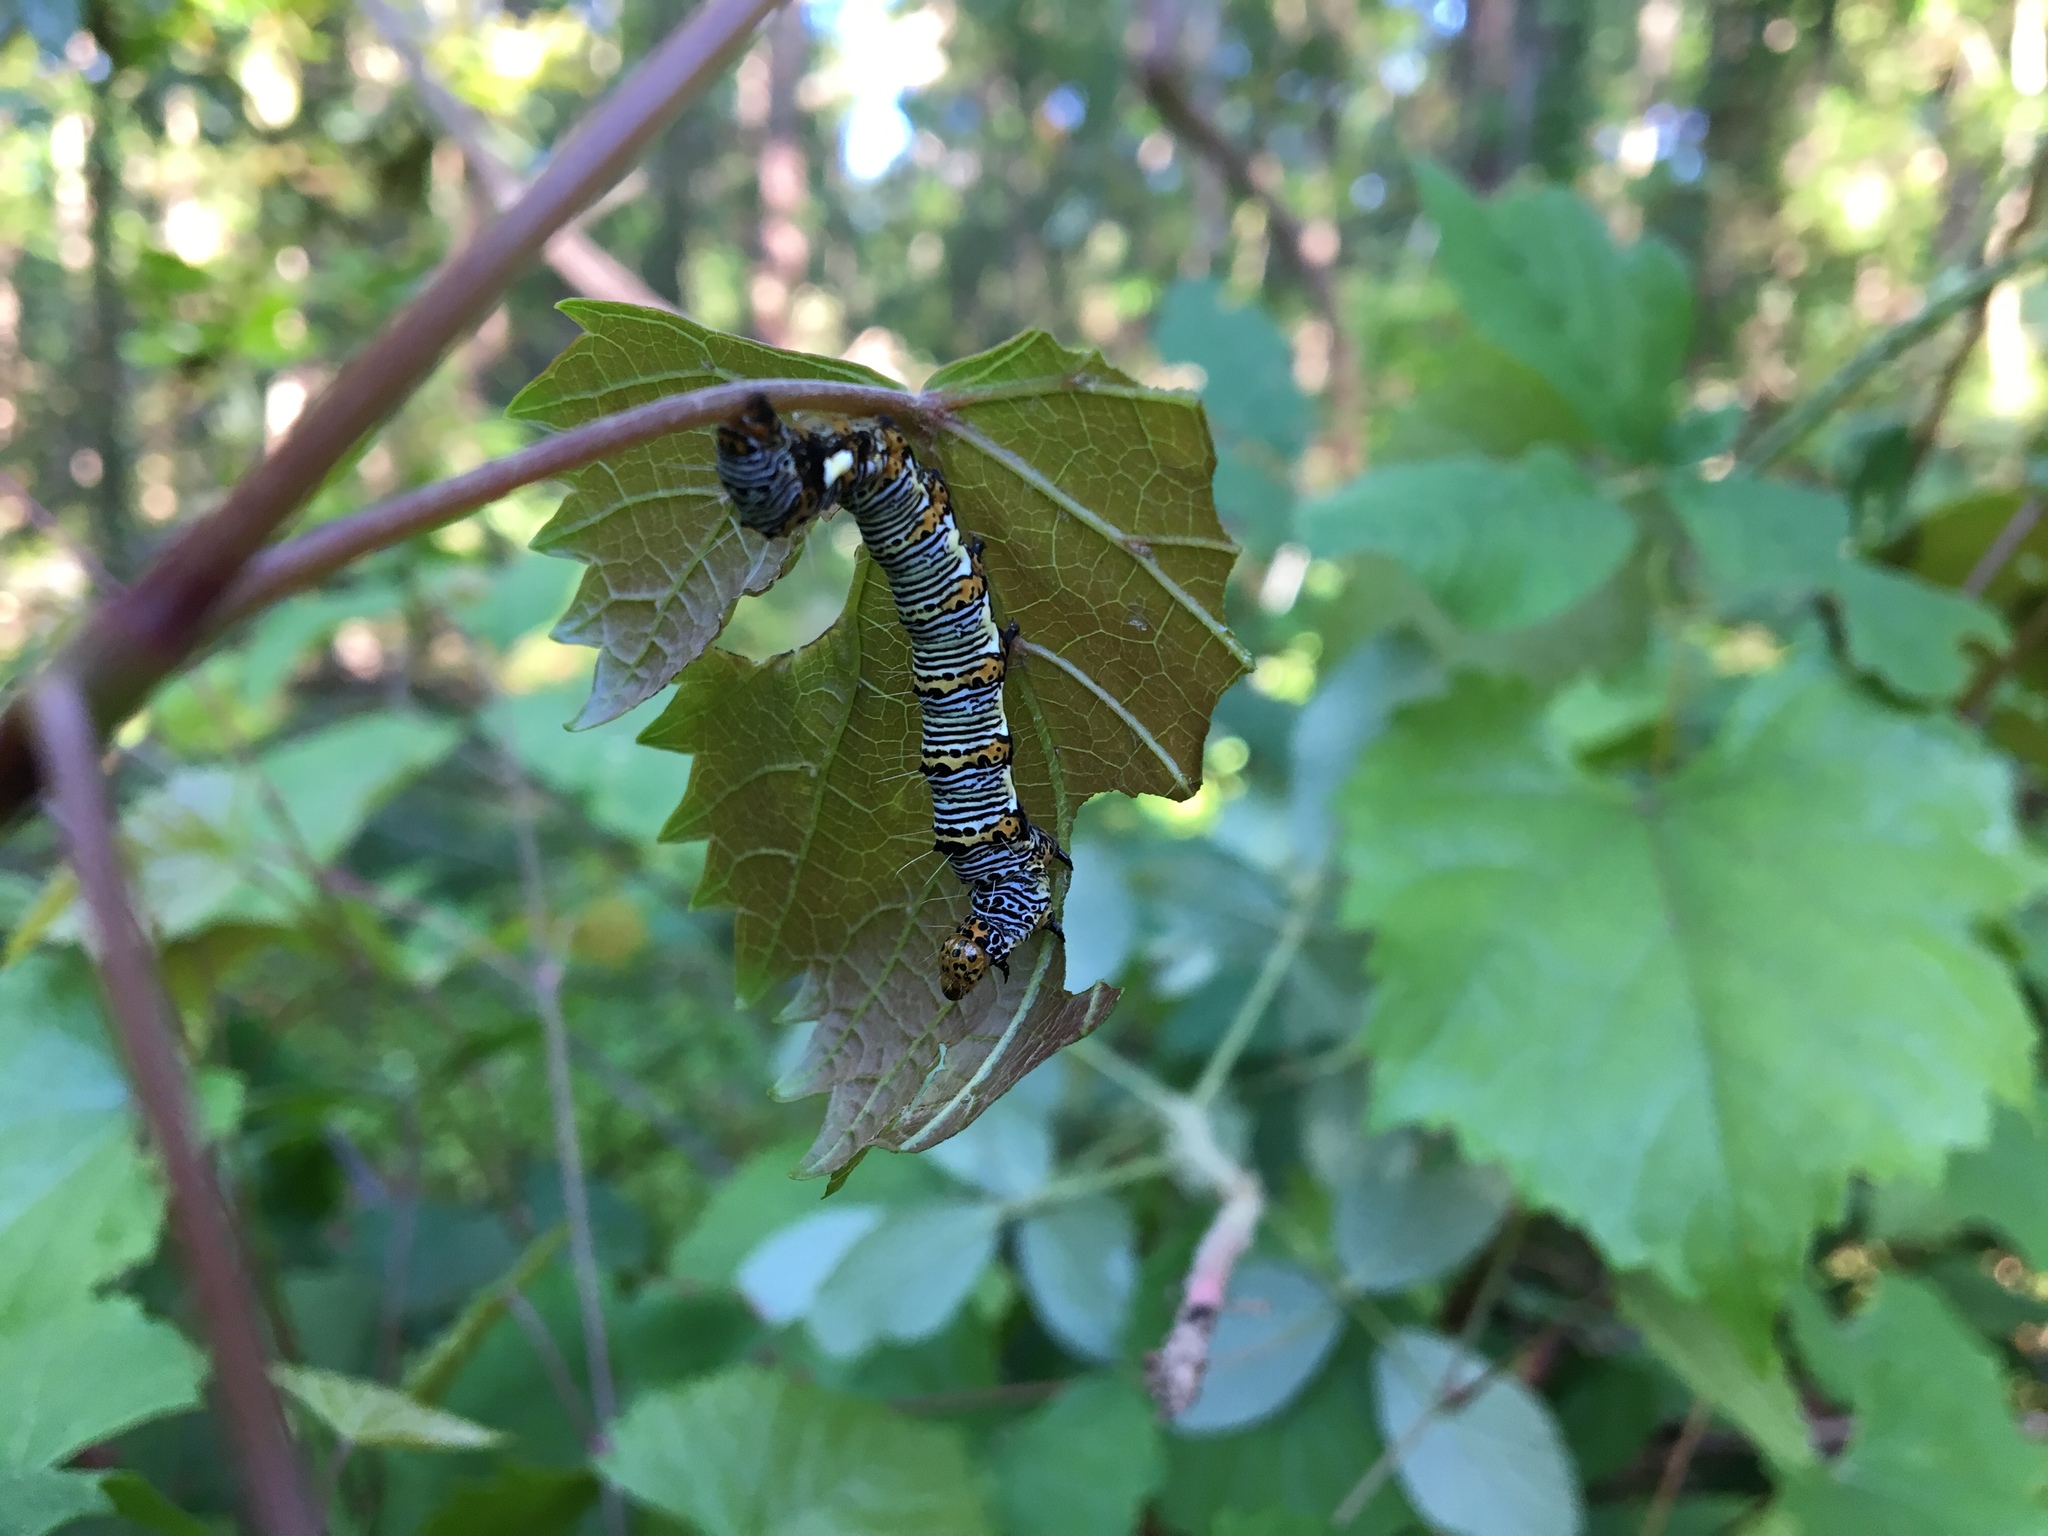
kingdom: Animalia
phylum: Arthropoda
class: Insecta
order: Lepidoptera
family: Noctuidae
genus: Alypia
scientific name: Alypia octomaculata
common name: Eight-spotted forester
